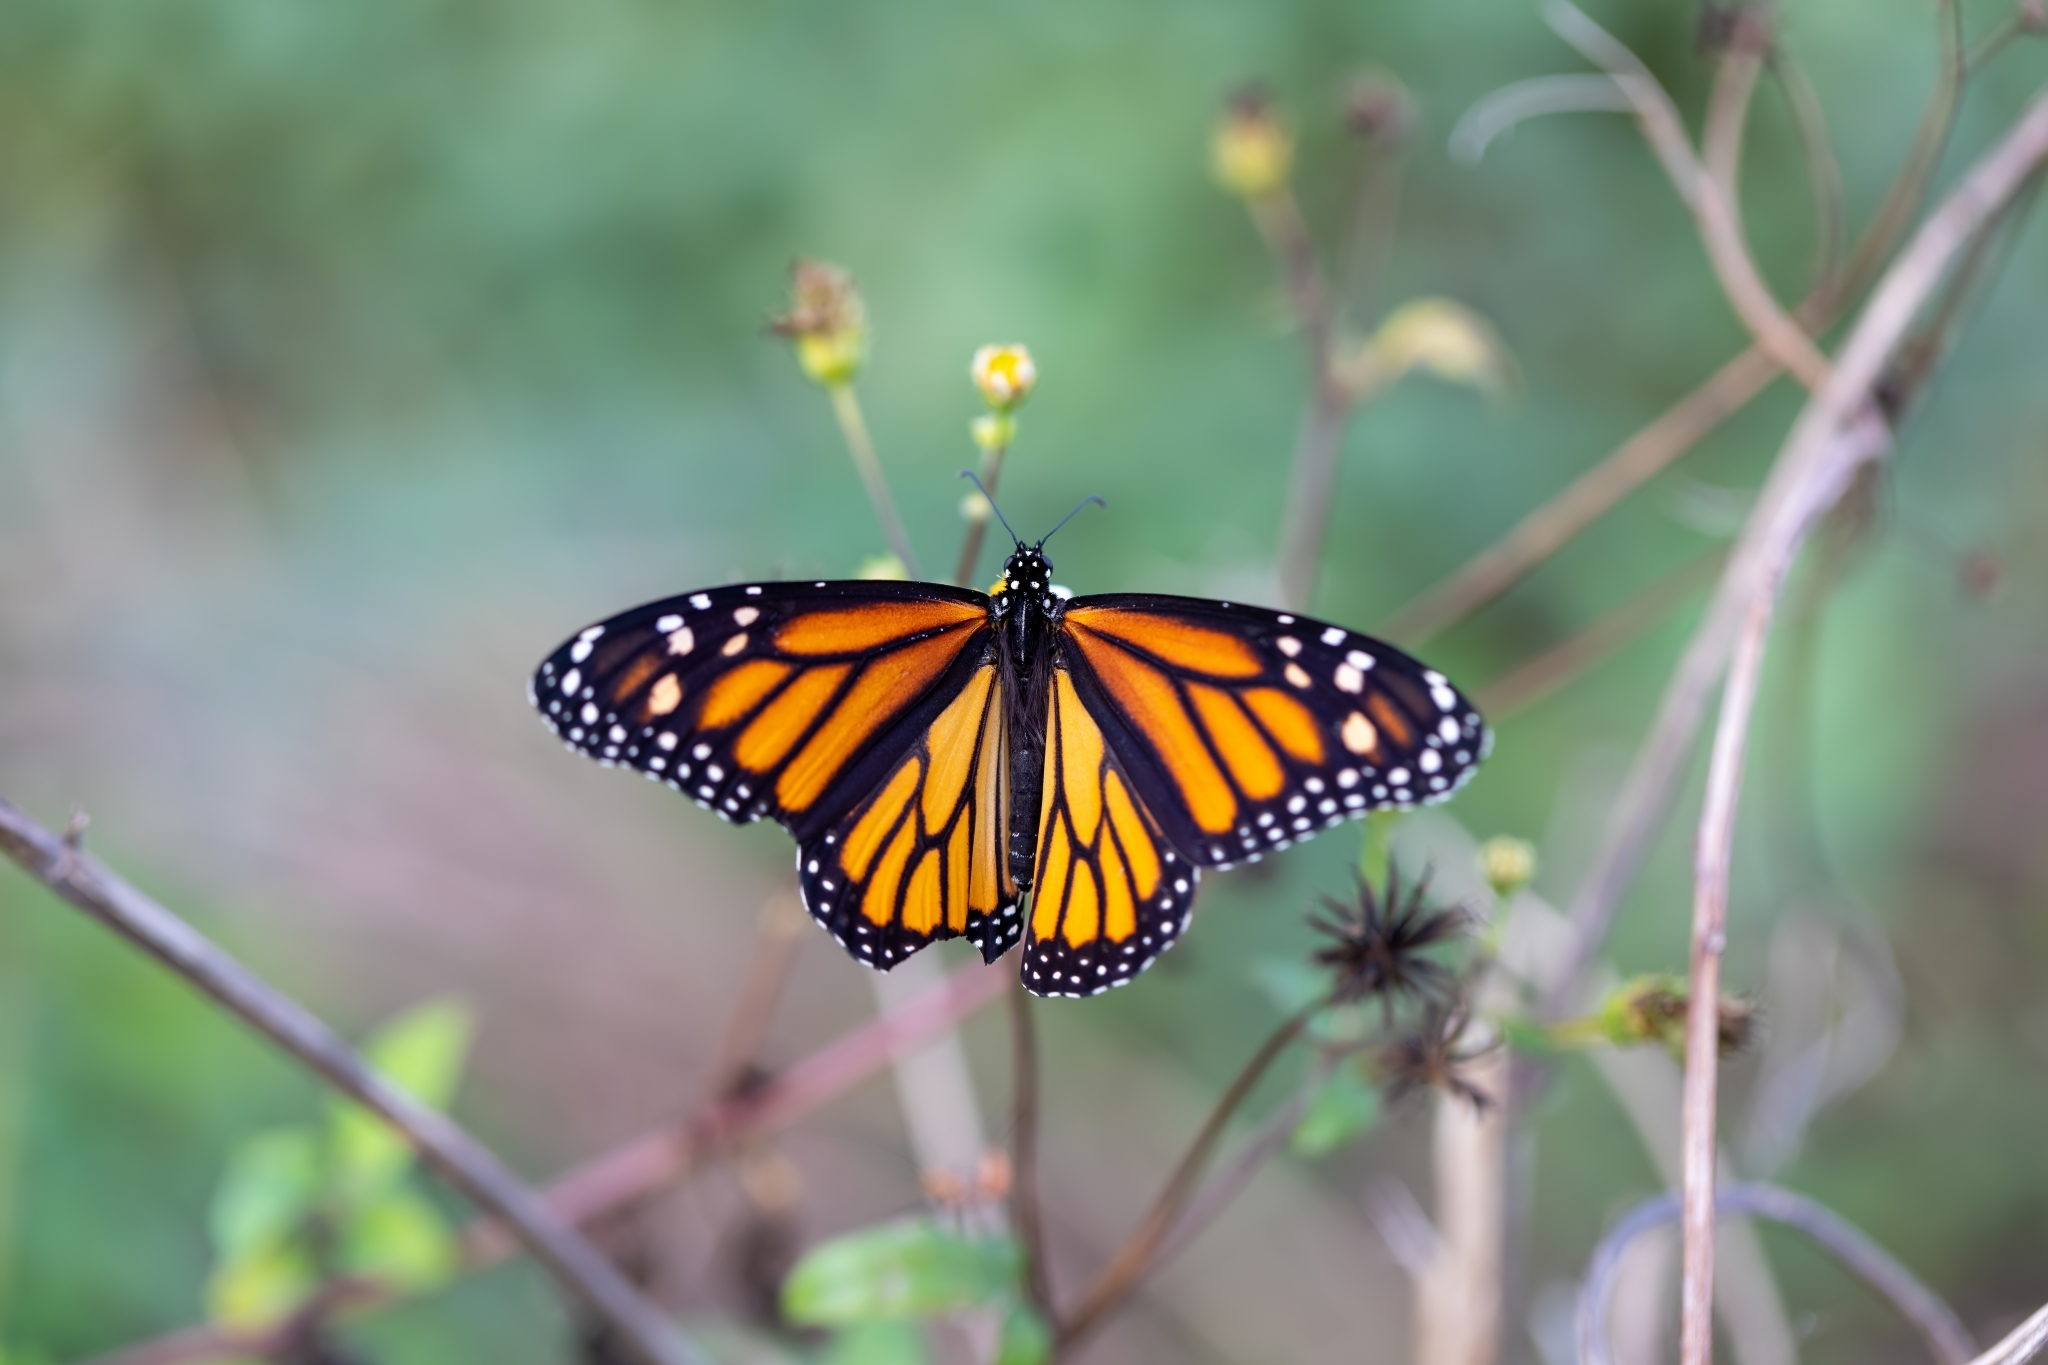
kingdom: Animalia
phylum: Arthropoda
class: Insecta
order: Lepidoptera
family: Nymphalidae
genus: Danaus
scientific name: Danaus plexippus
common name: Monarch
